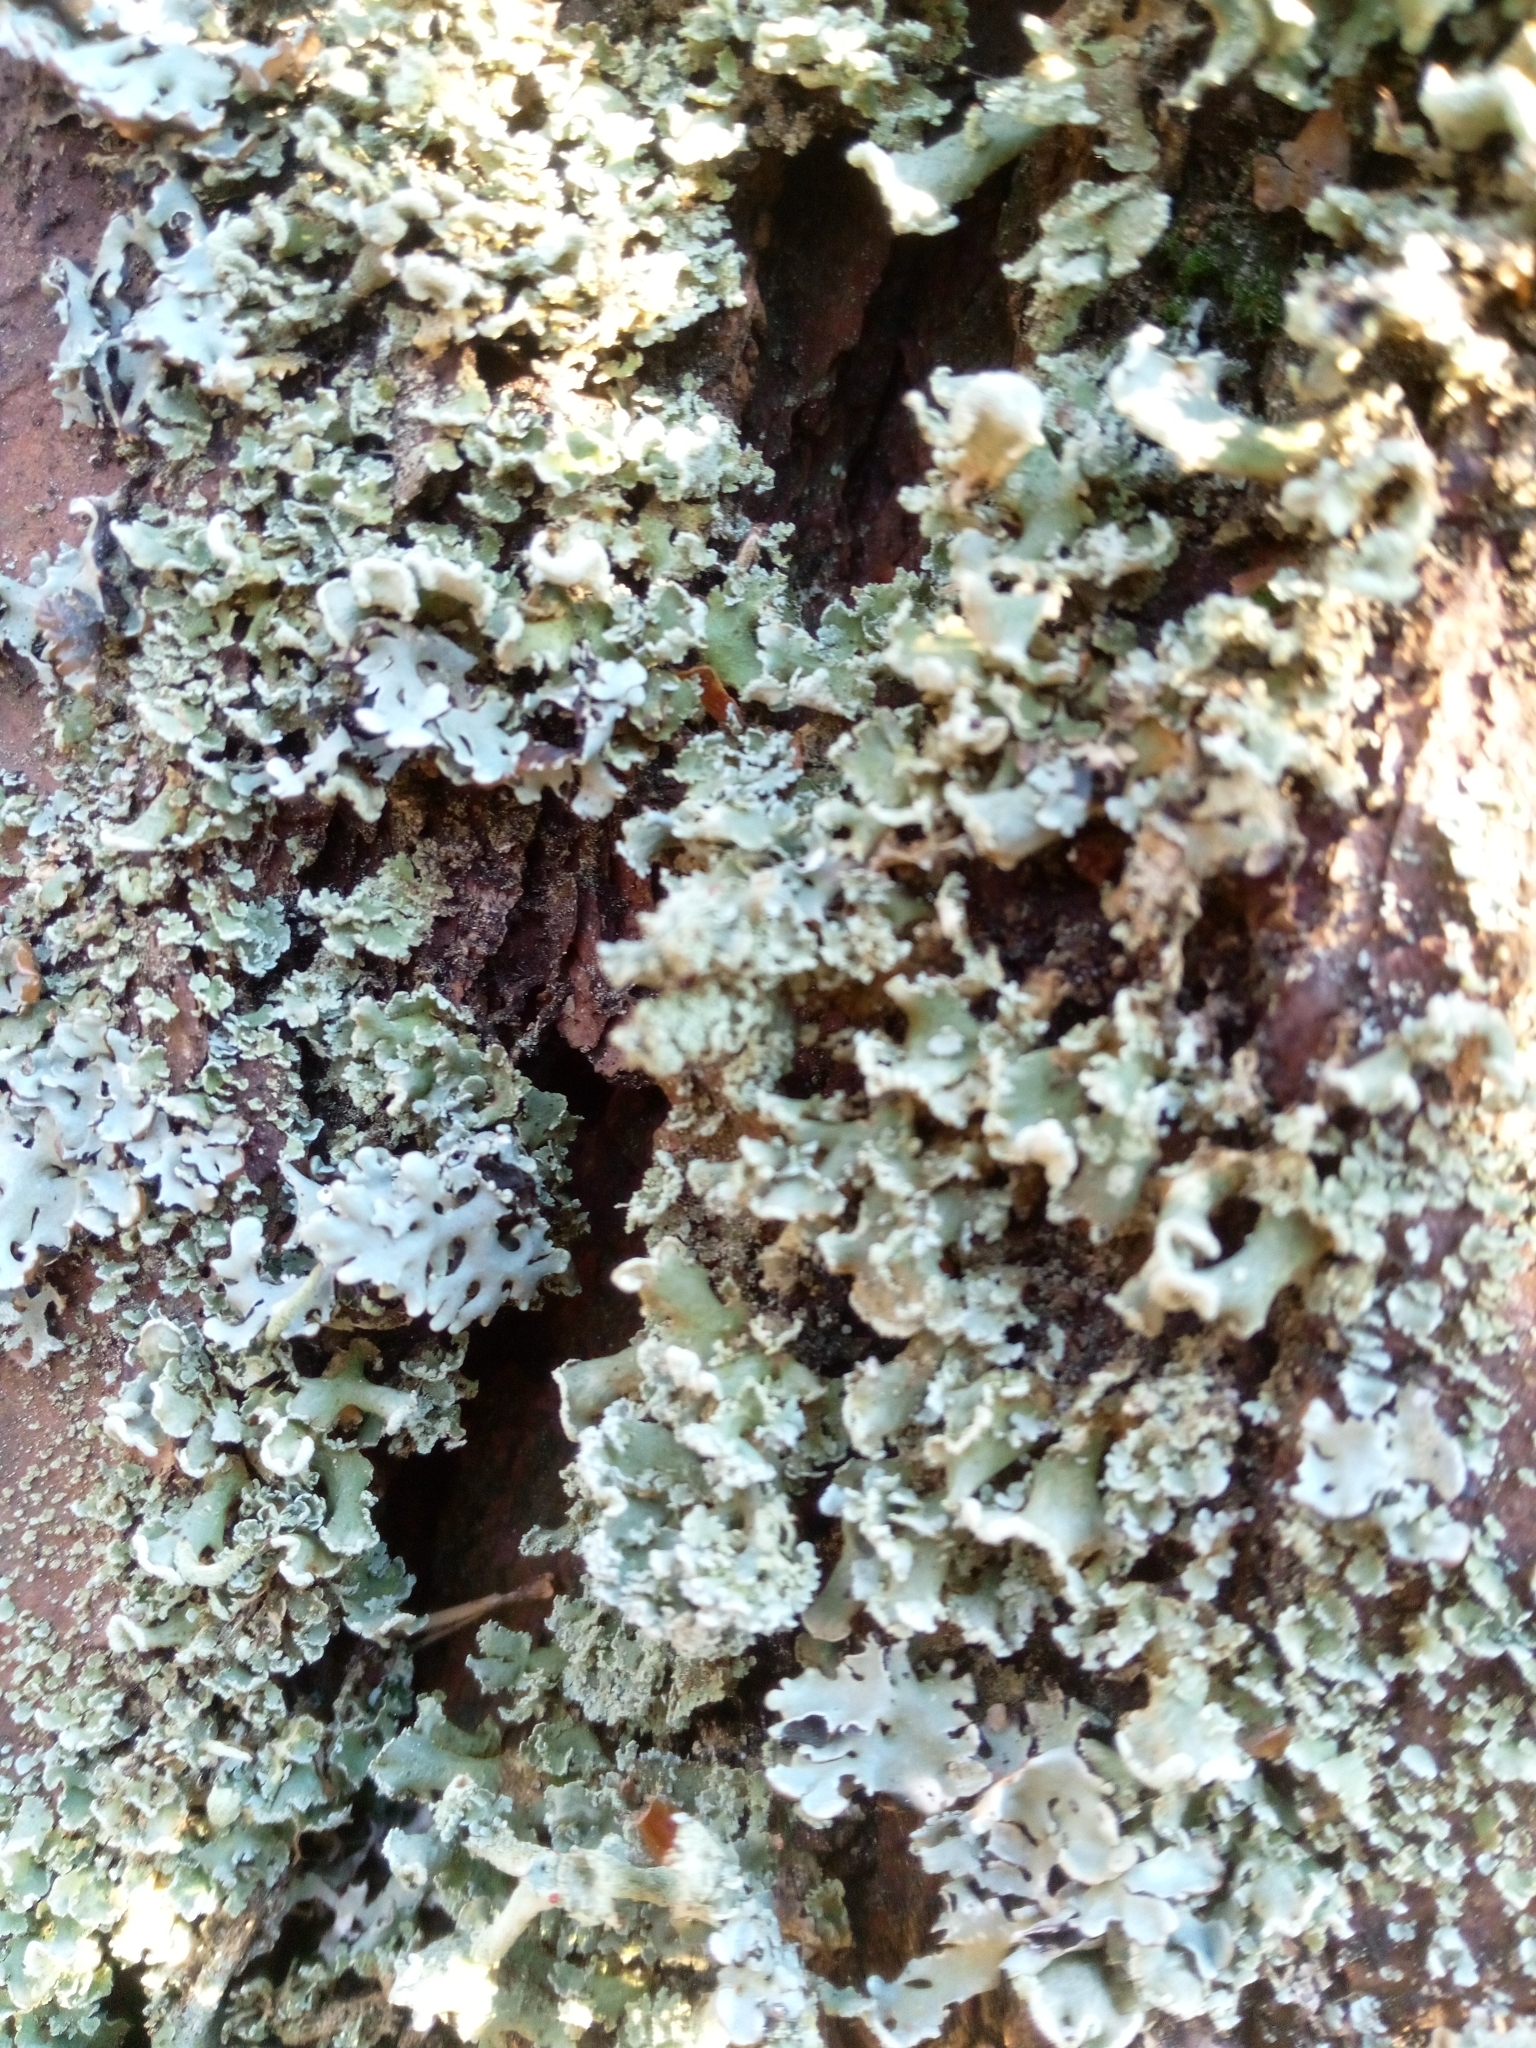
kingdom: Fungi
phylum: Ascomycota
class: Lecanoromycetes
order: Lecanorales
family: Cladoniaceae
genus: Cladonia
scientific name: Cladonia digitata
